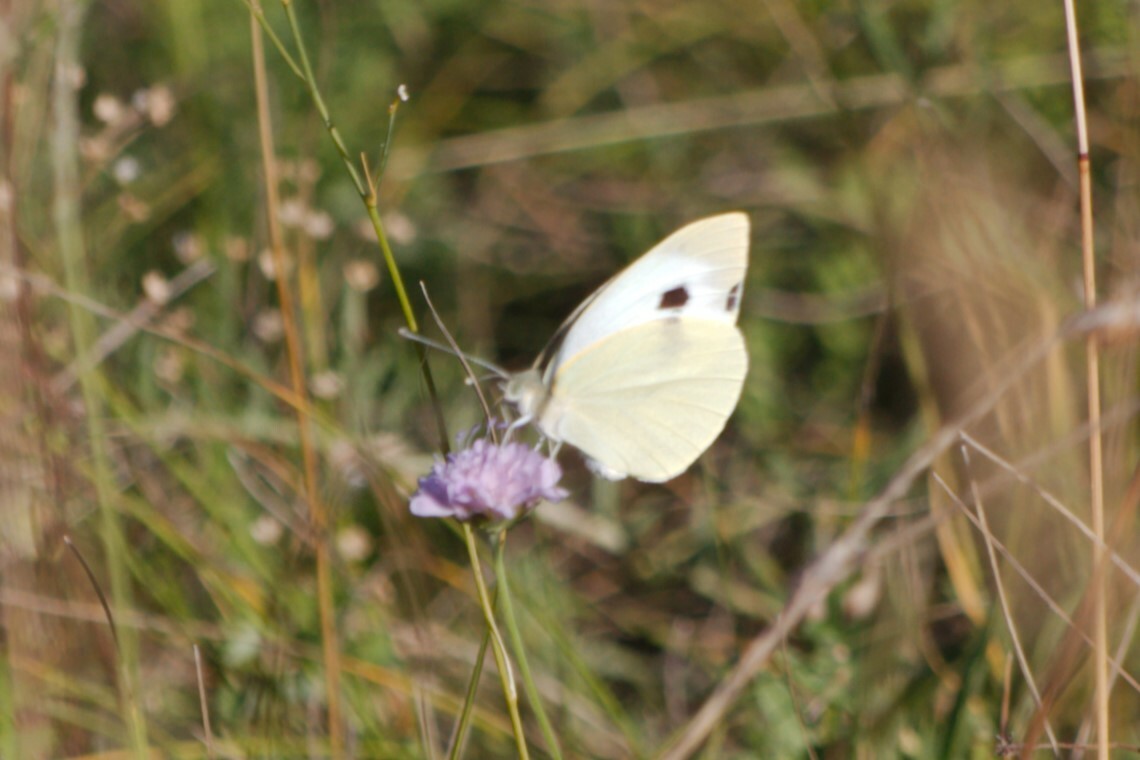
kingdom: Animalia
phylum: Arthropoda
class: Insecta
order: Lepidoptera
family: Pieridae
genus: Pieris
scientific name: Pieris brassicae
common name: Large white
